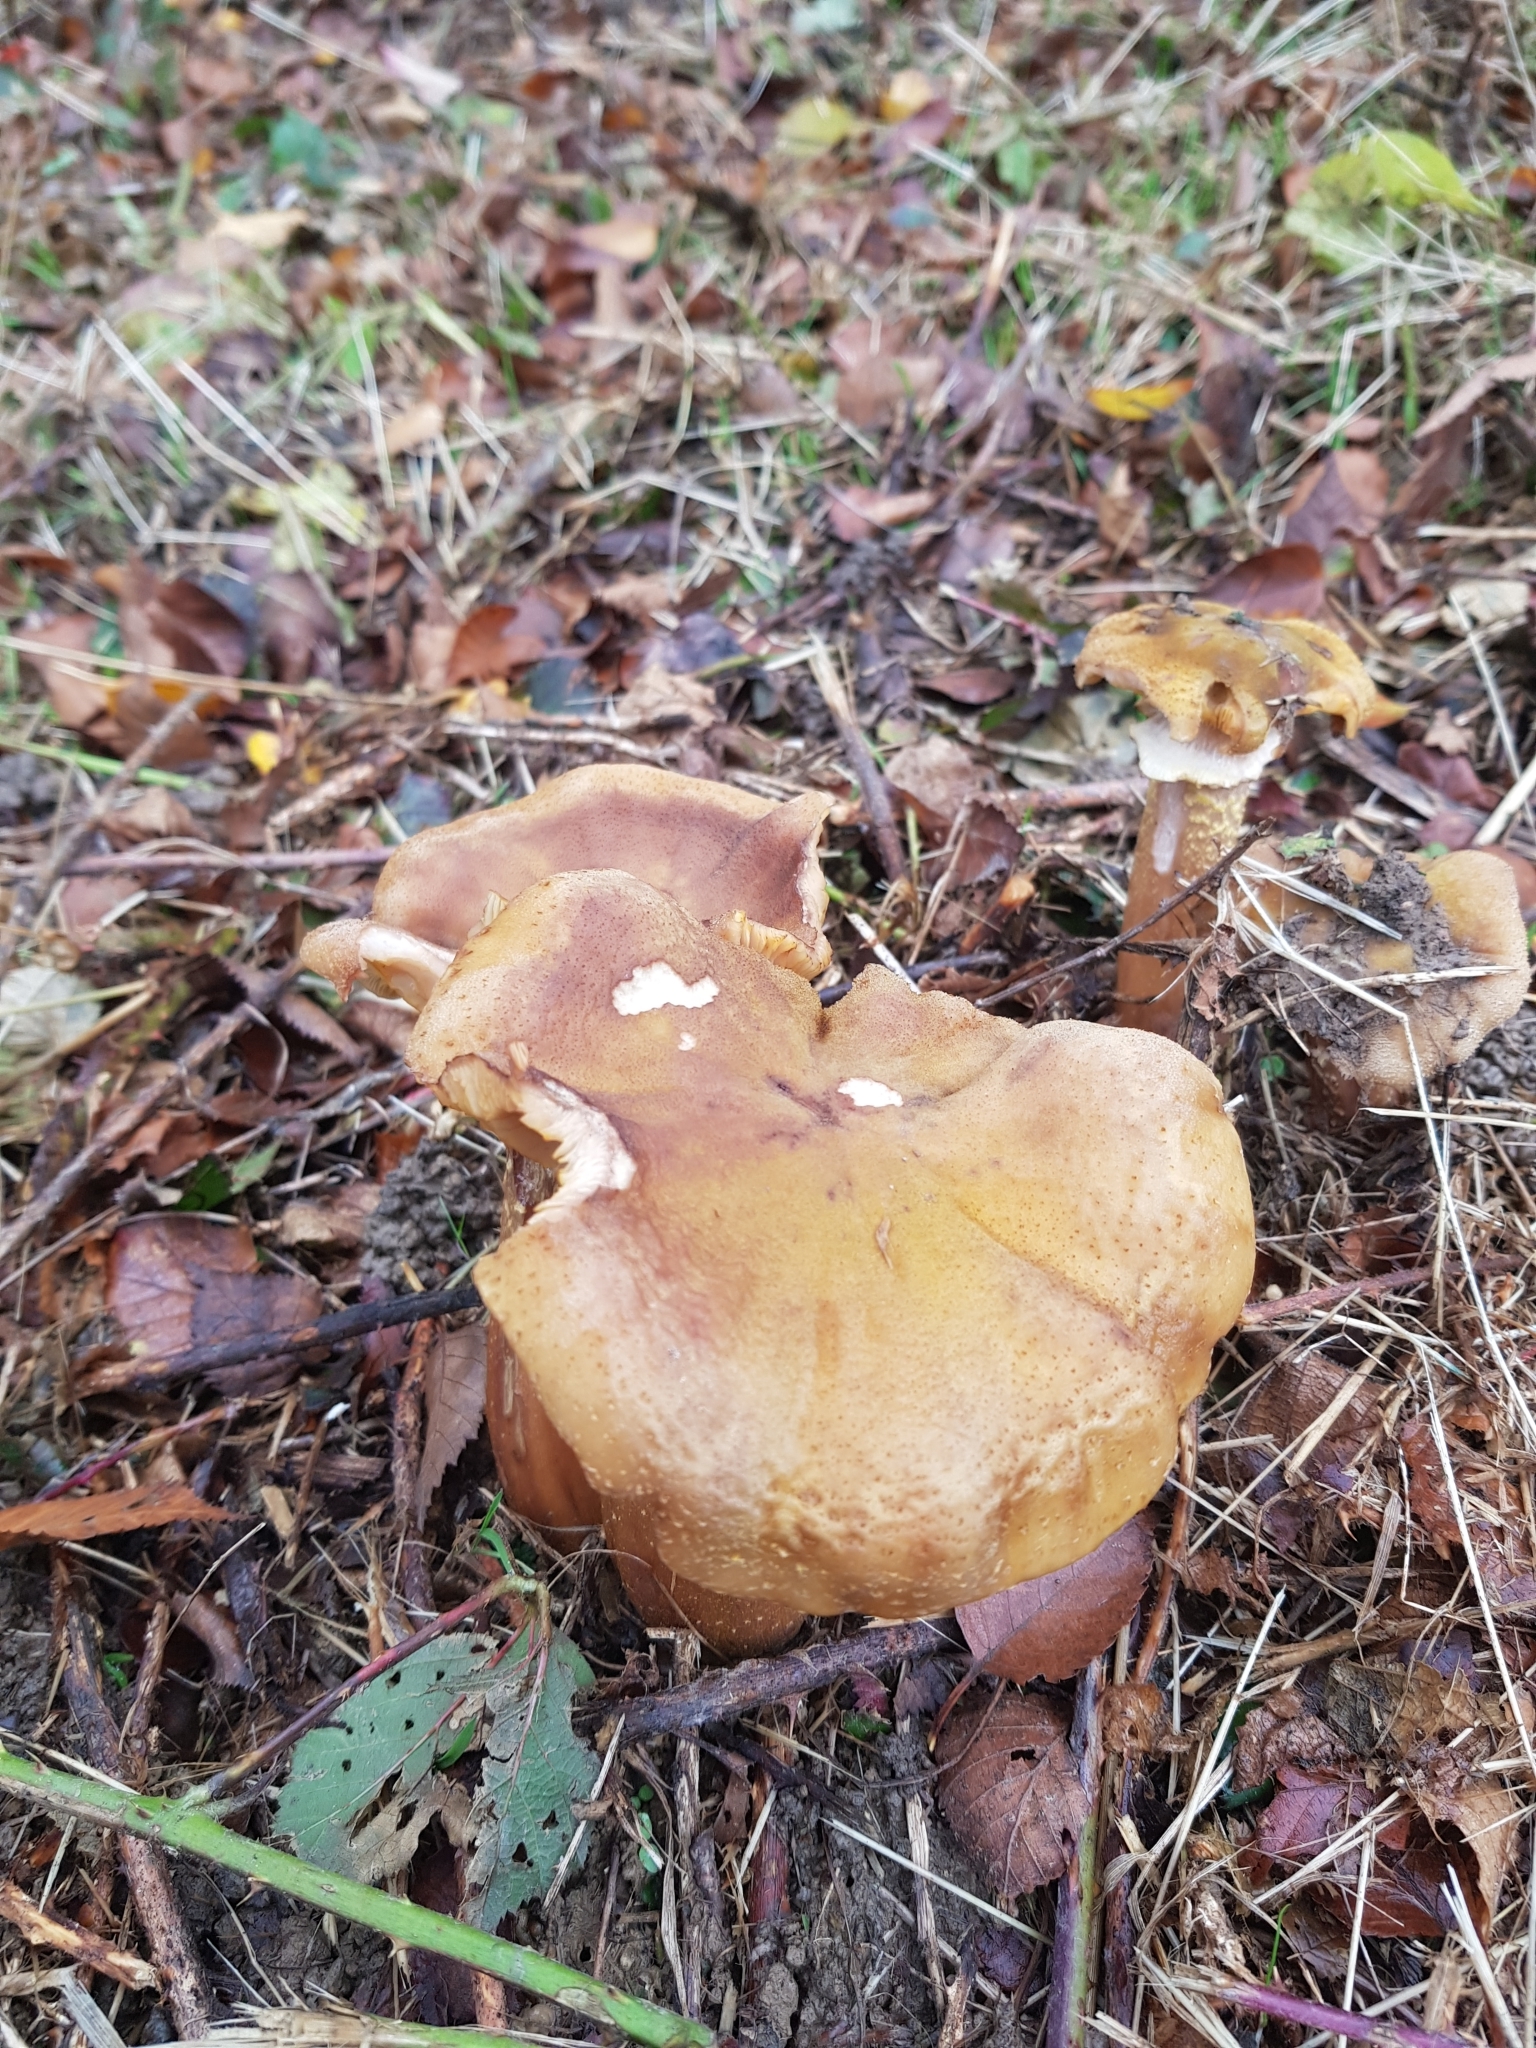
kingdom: Fungi
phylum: Basidiomycota
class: Agaricomycetes
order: Agaricales
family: Physalacriaceae
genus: Armillaria
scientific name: Armillaria mellea
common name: Honey fungus
